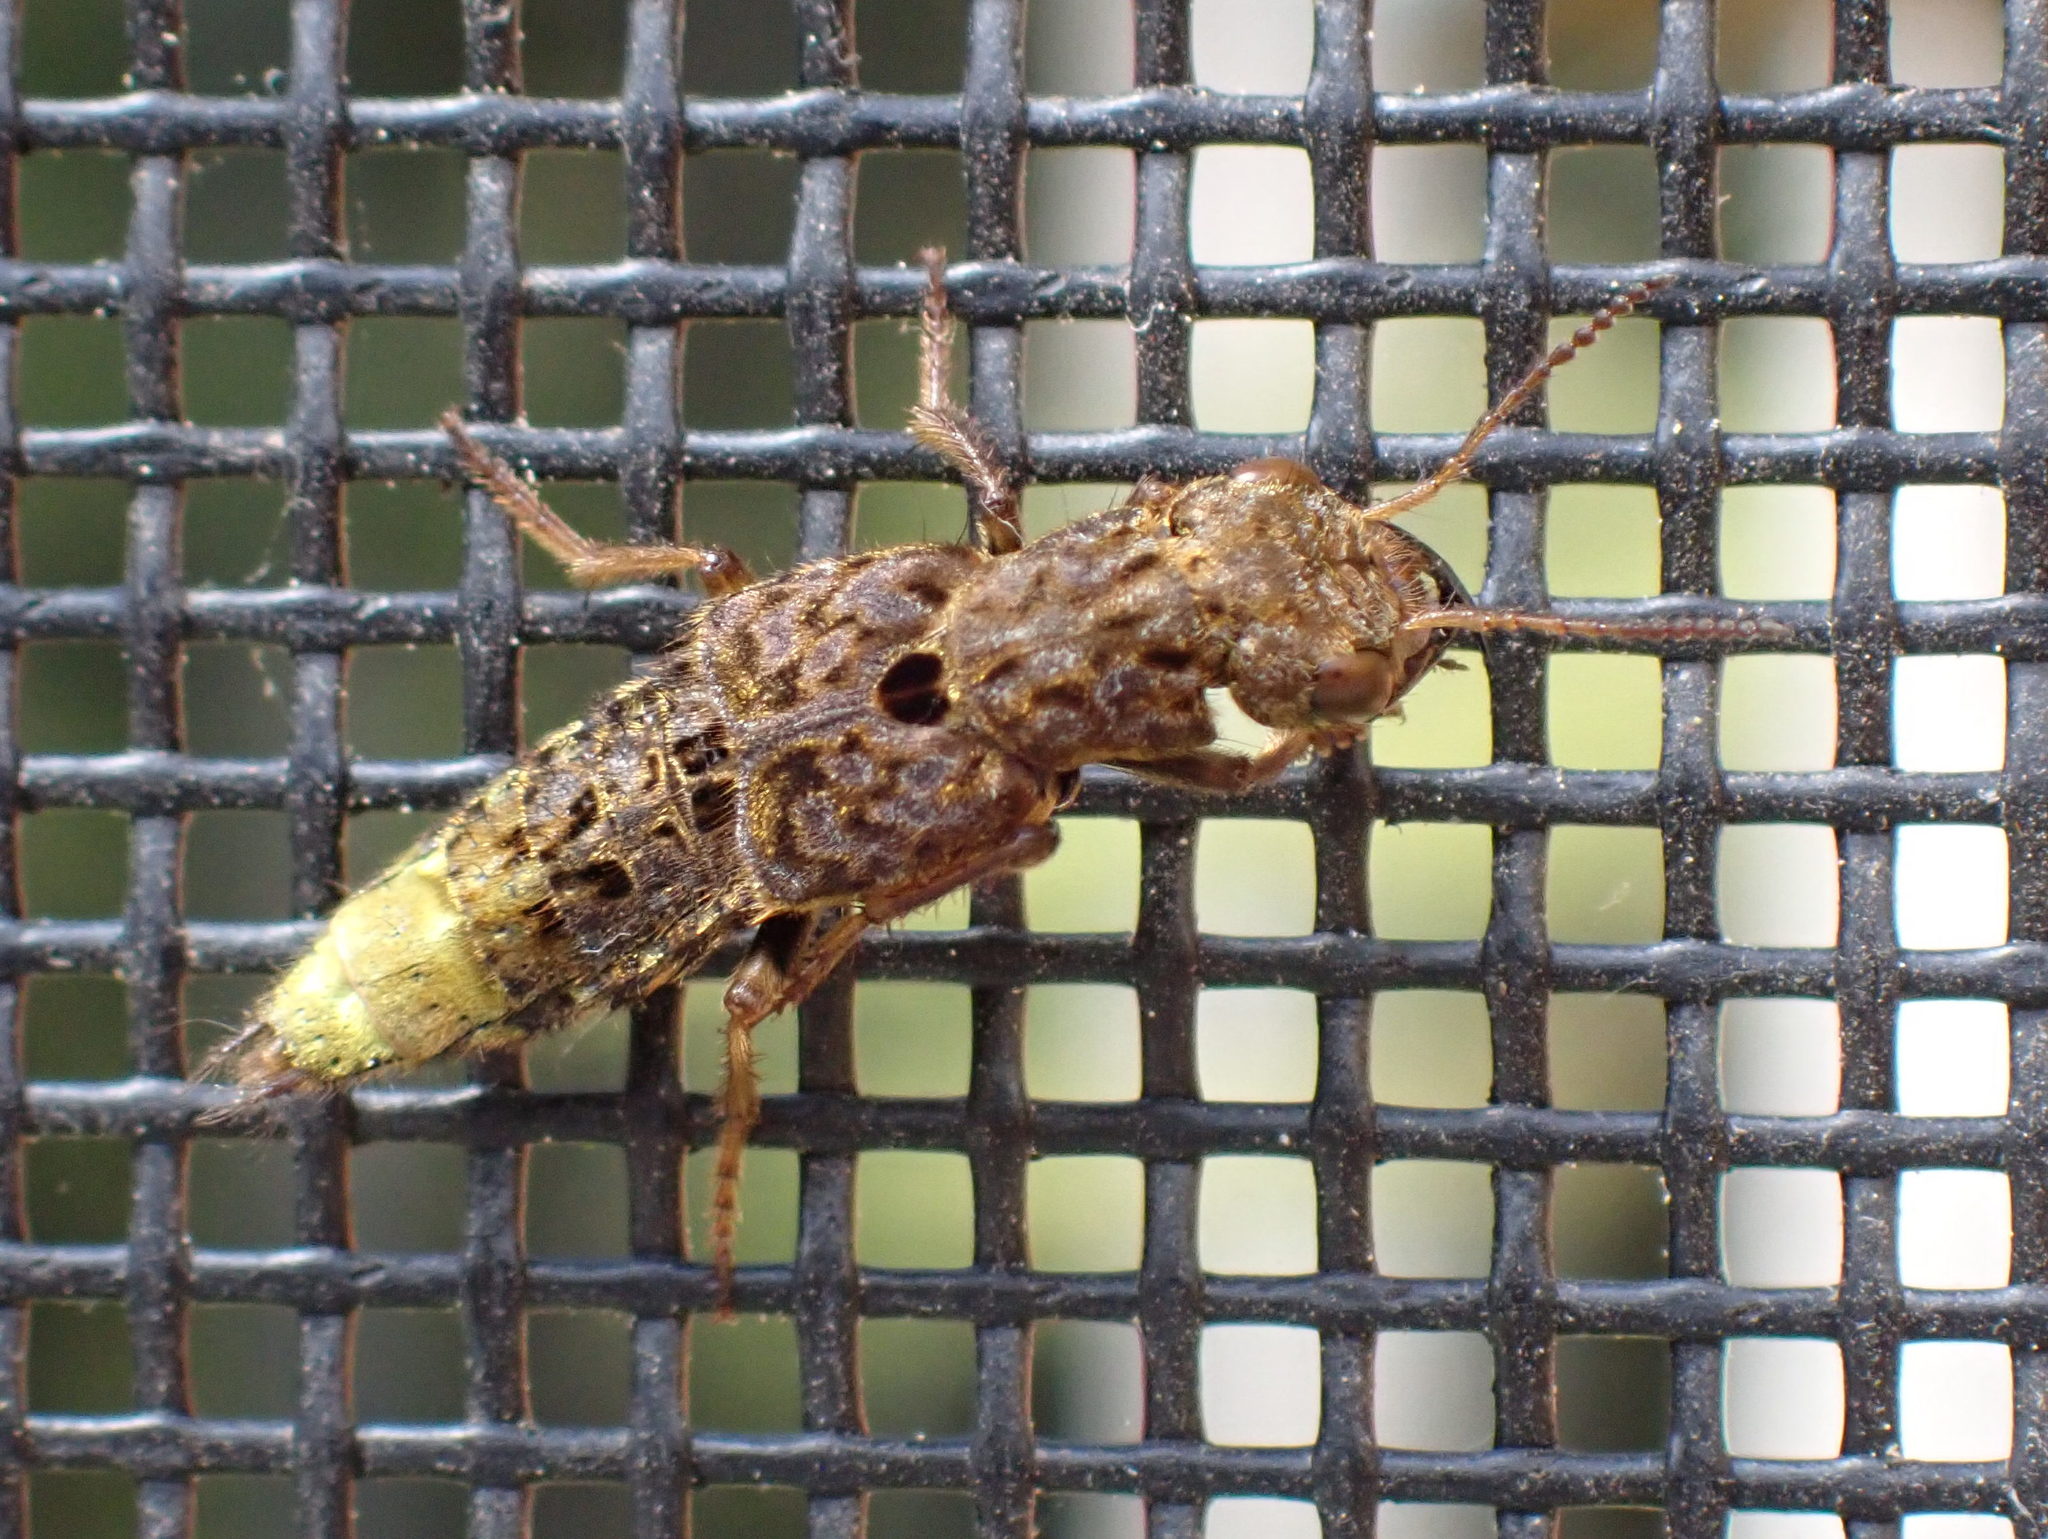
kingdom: Animalia
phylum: Arthropoda
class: Insecta
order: Coleoptera
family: Staphylinidae
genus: Ontholestes
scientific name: Ontholestes cingulatus
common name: Gold-and-brown rove beetle
